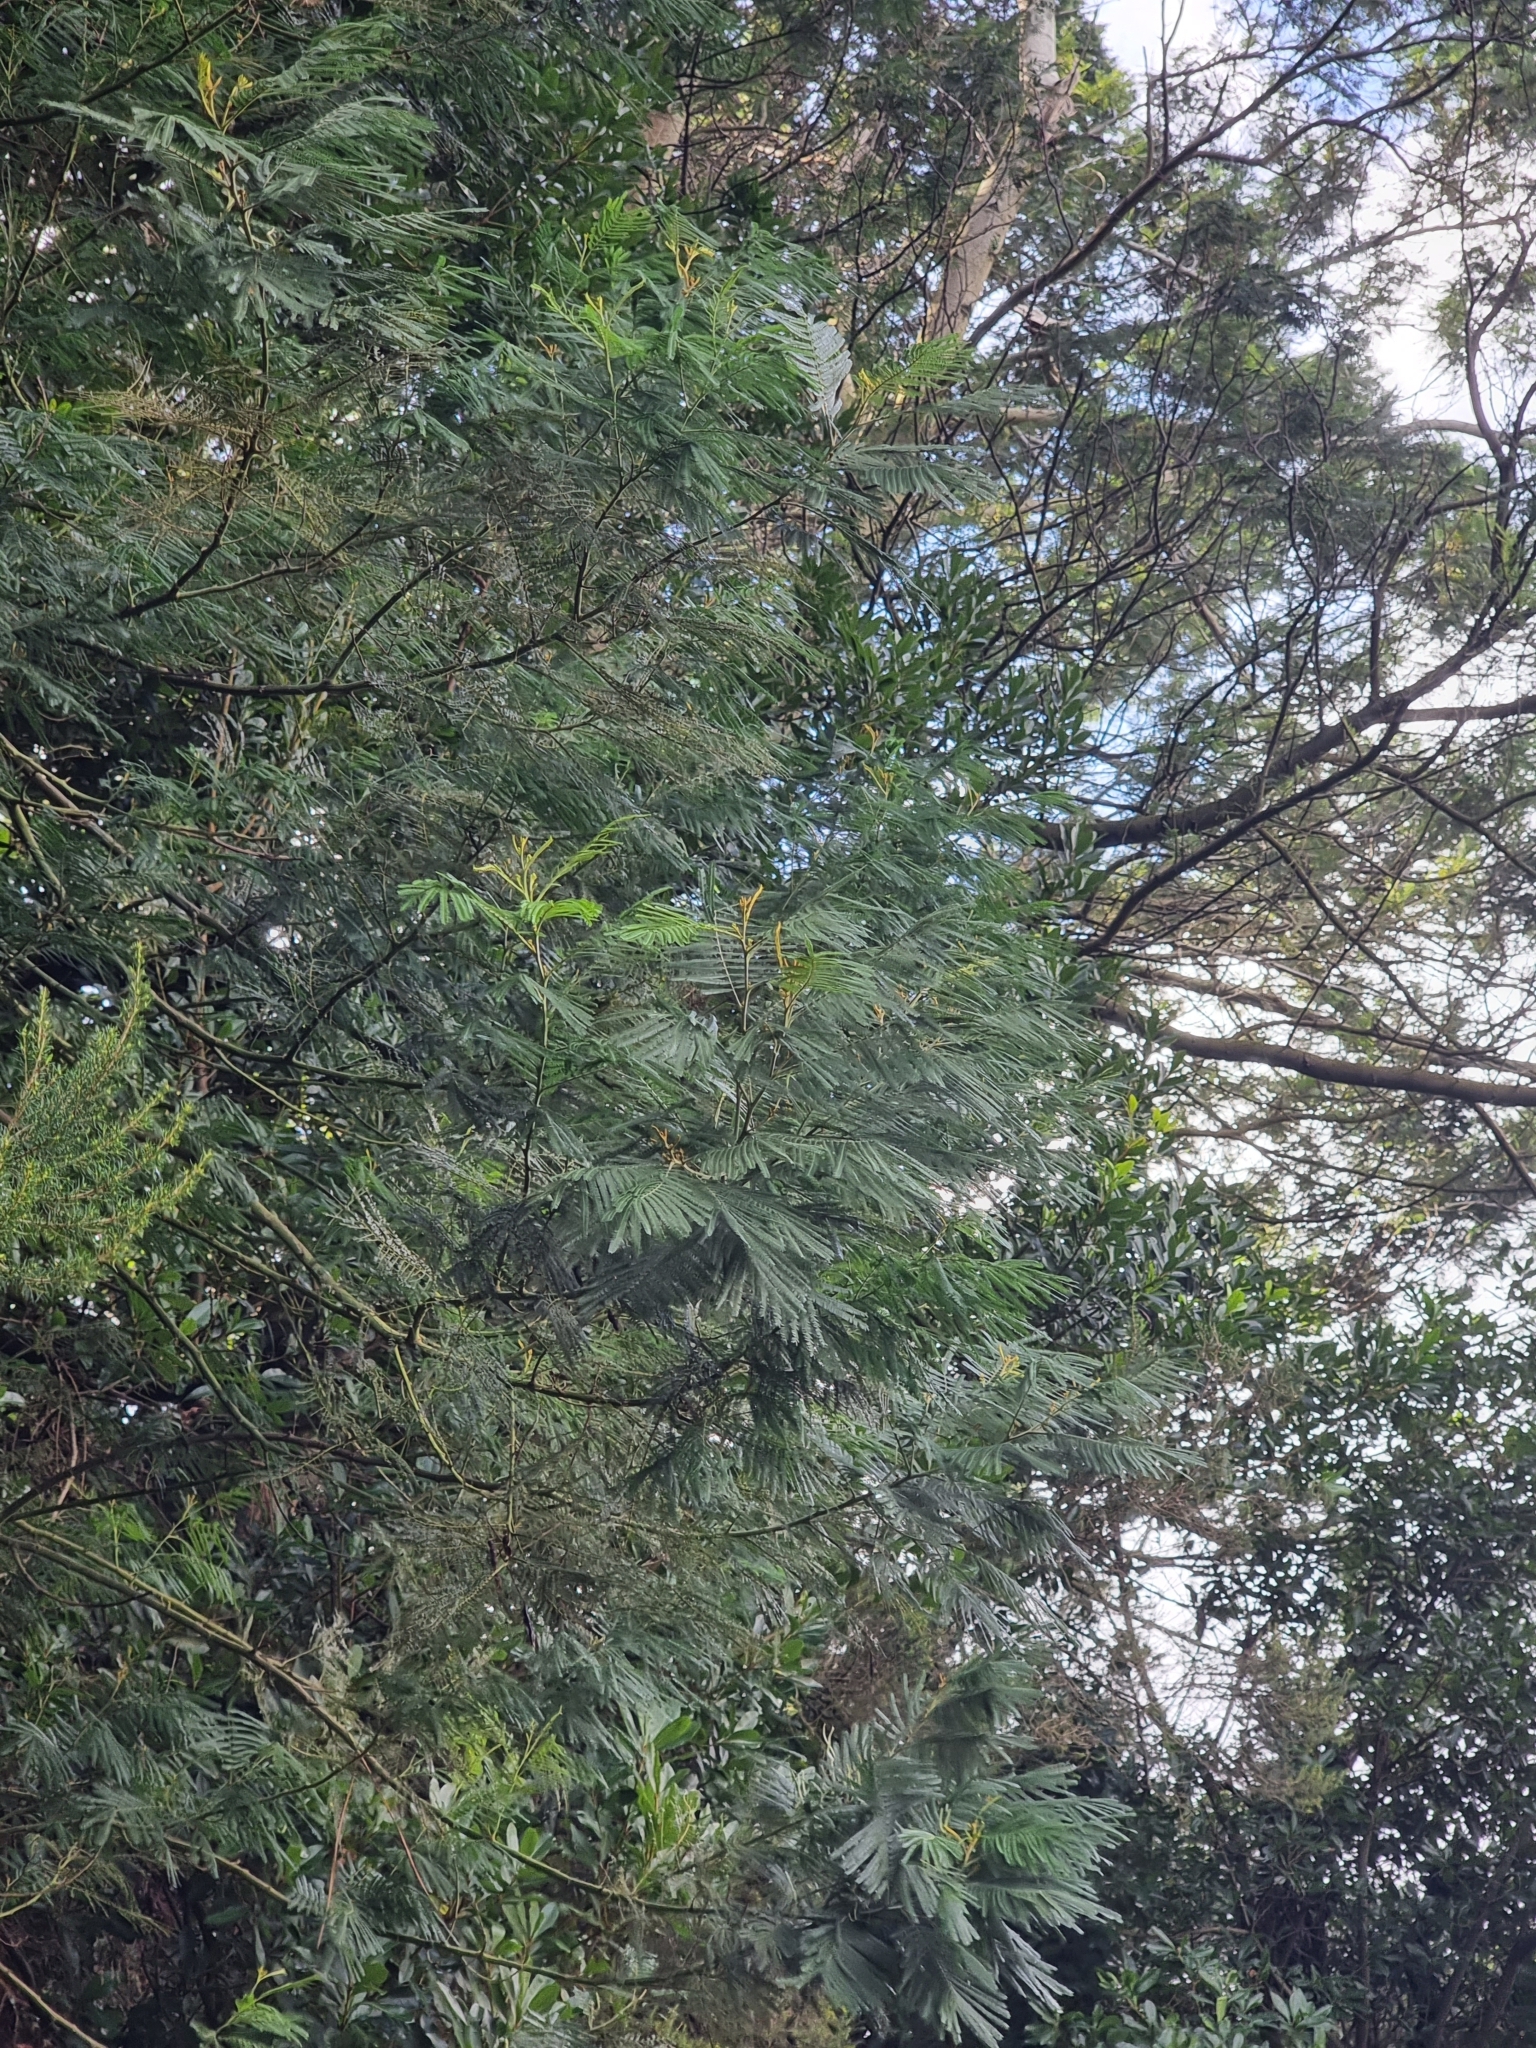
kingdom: Plantae
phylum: Tracheophyta
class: Magnoliopsida
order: Fabales
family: Fabaceae
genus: Acacia
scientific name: Acacia mearnsii
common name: Black wattle
